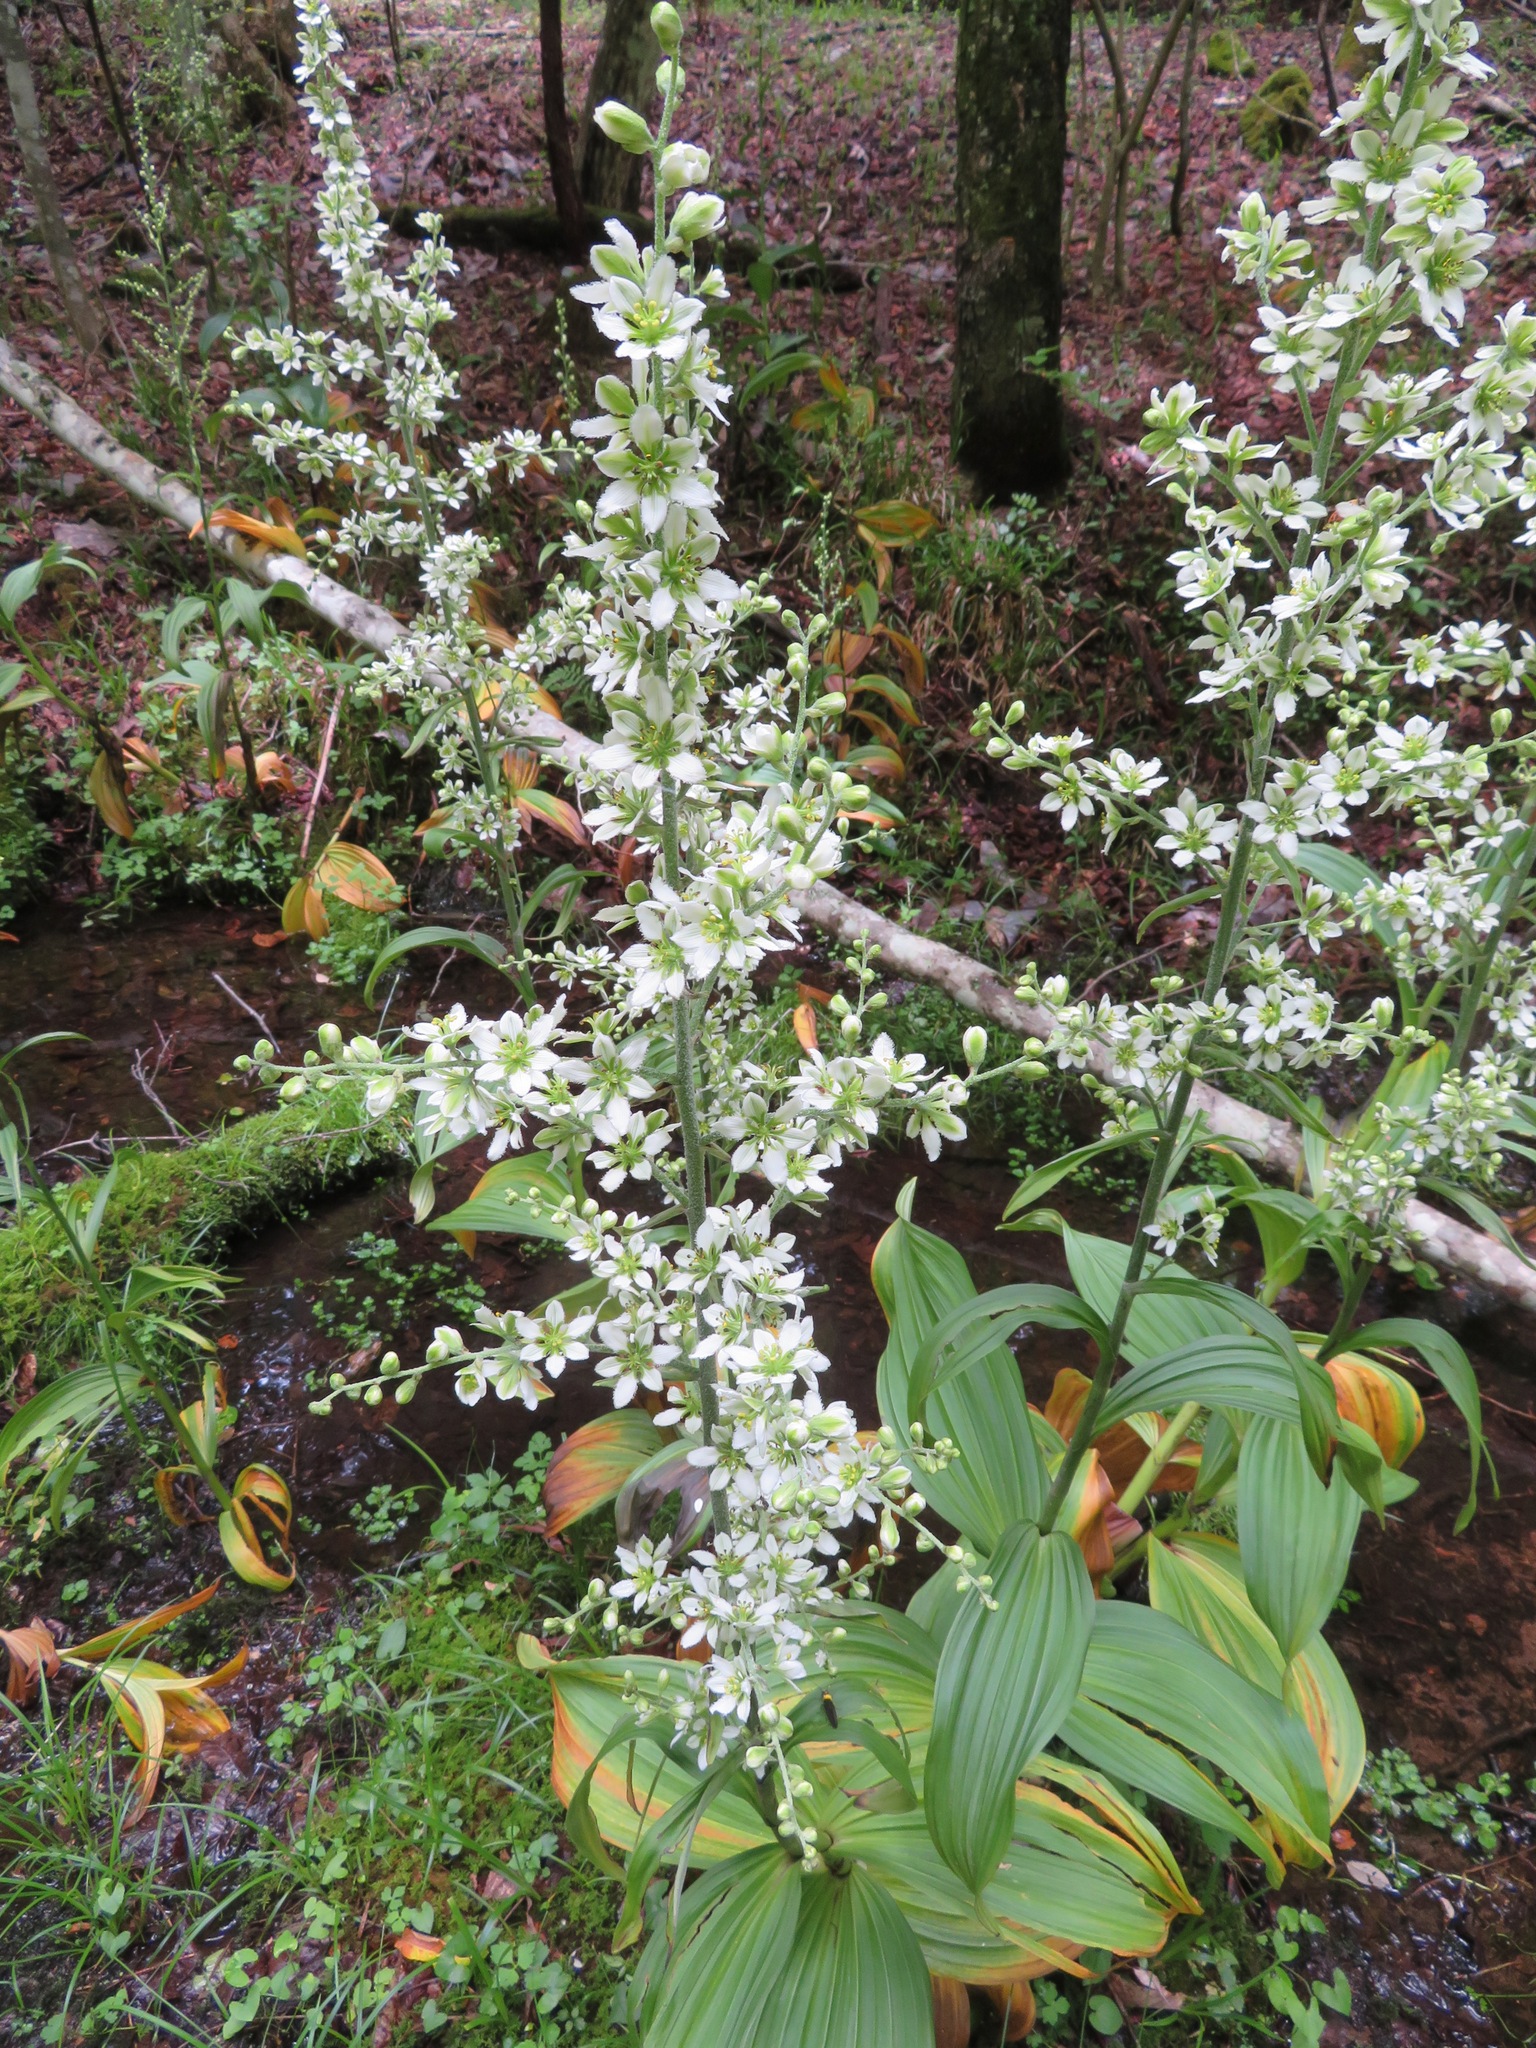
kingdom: Plantae
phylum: Tracheophyta
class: Liliopsida
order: Liliales
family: Melanthiaceae
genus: Veratrum
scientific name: Veratrum oxysepalum
